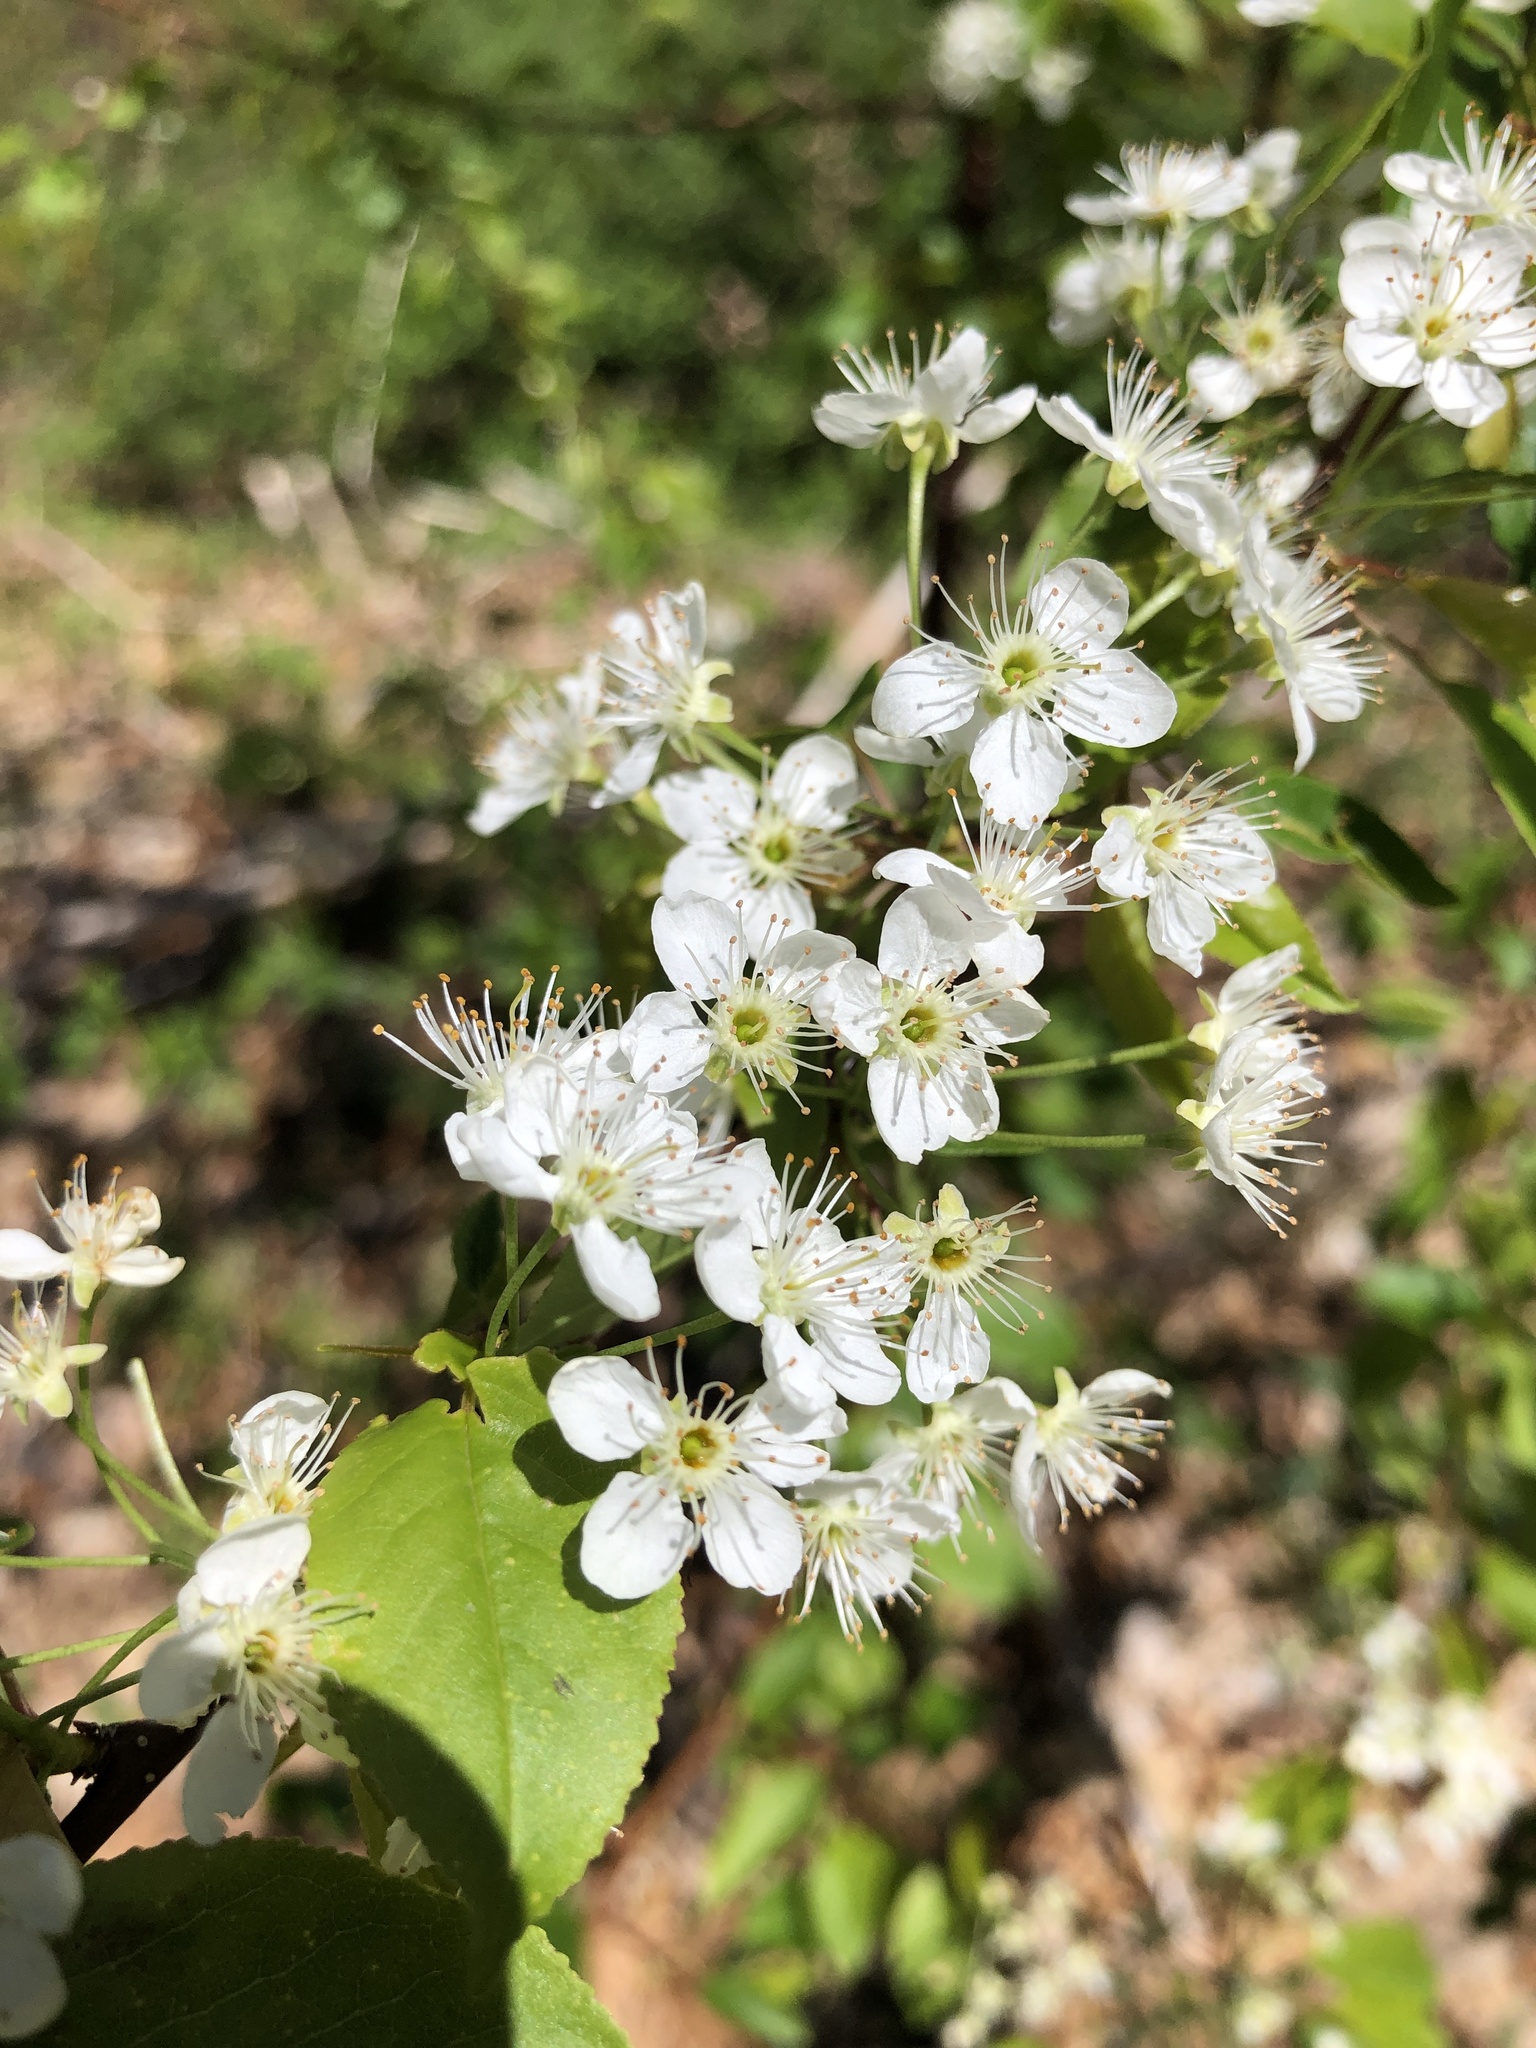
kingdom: Plantae
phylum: Tracheophyta
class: Magnoliopsida
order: Rosales
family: Rosaceae
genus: Prunus
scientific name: Prunus pensylvanica
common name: Pin cherry
